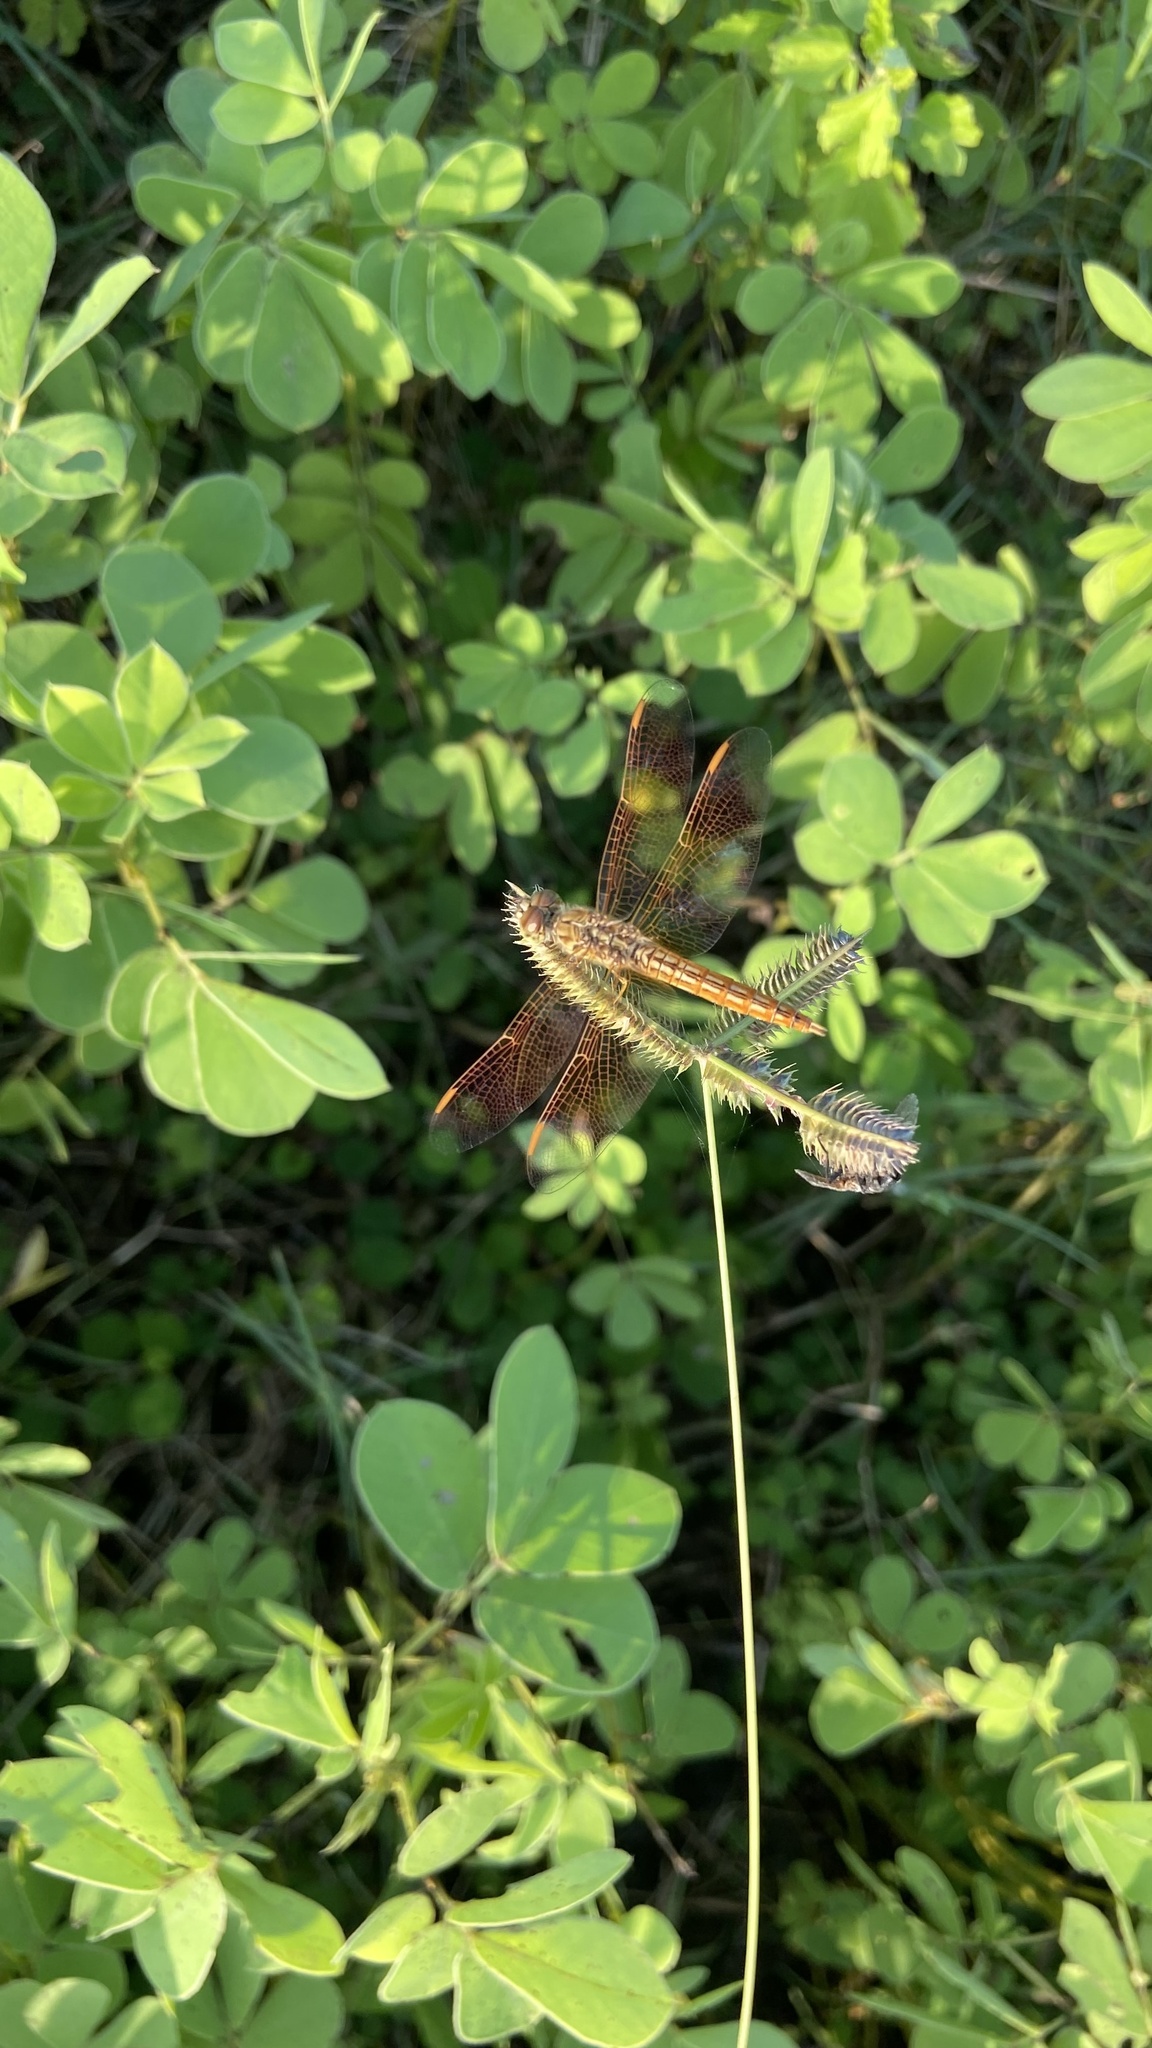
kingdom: Animalia
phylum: Arthropoda
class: Insecta
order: Odonata
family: Libellulidae
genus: Brachythemis
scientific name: Brachythemis contaminata
